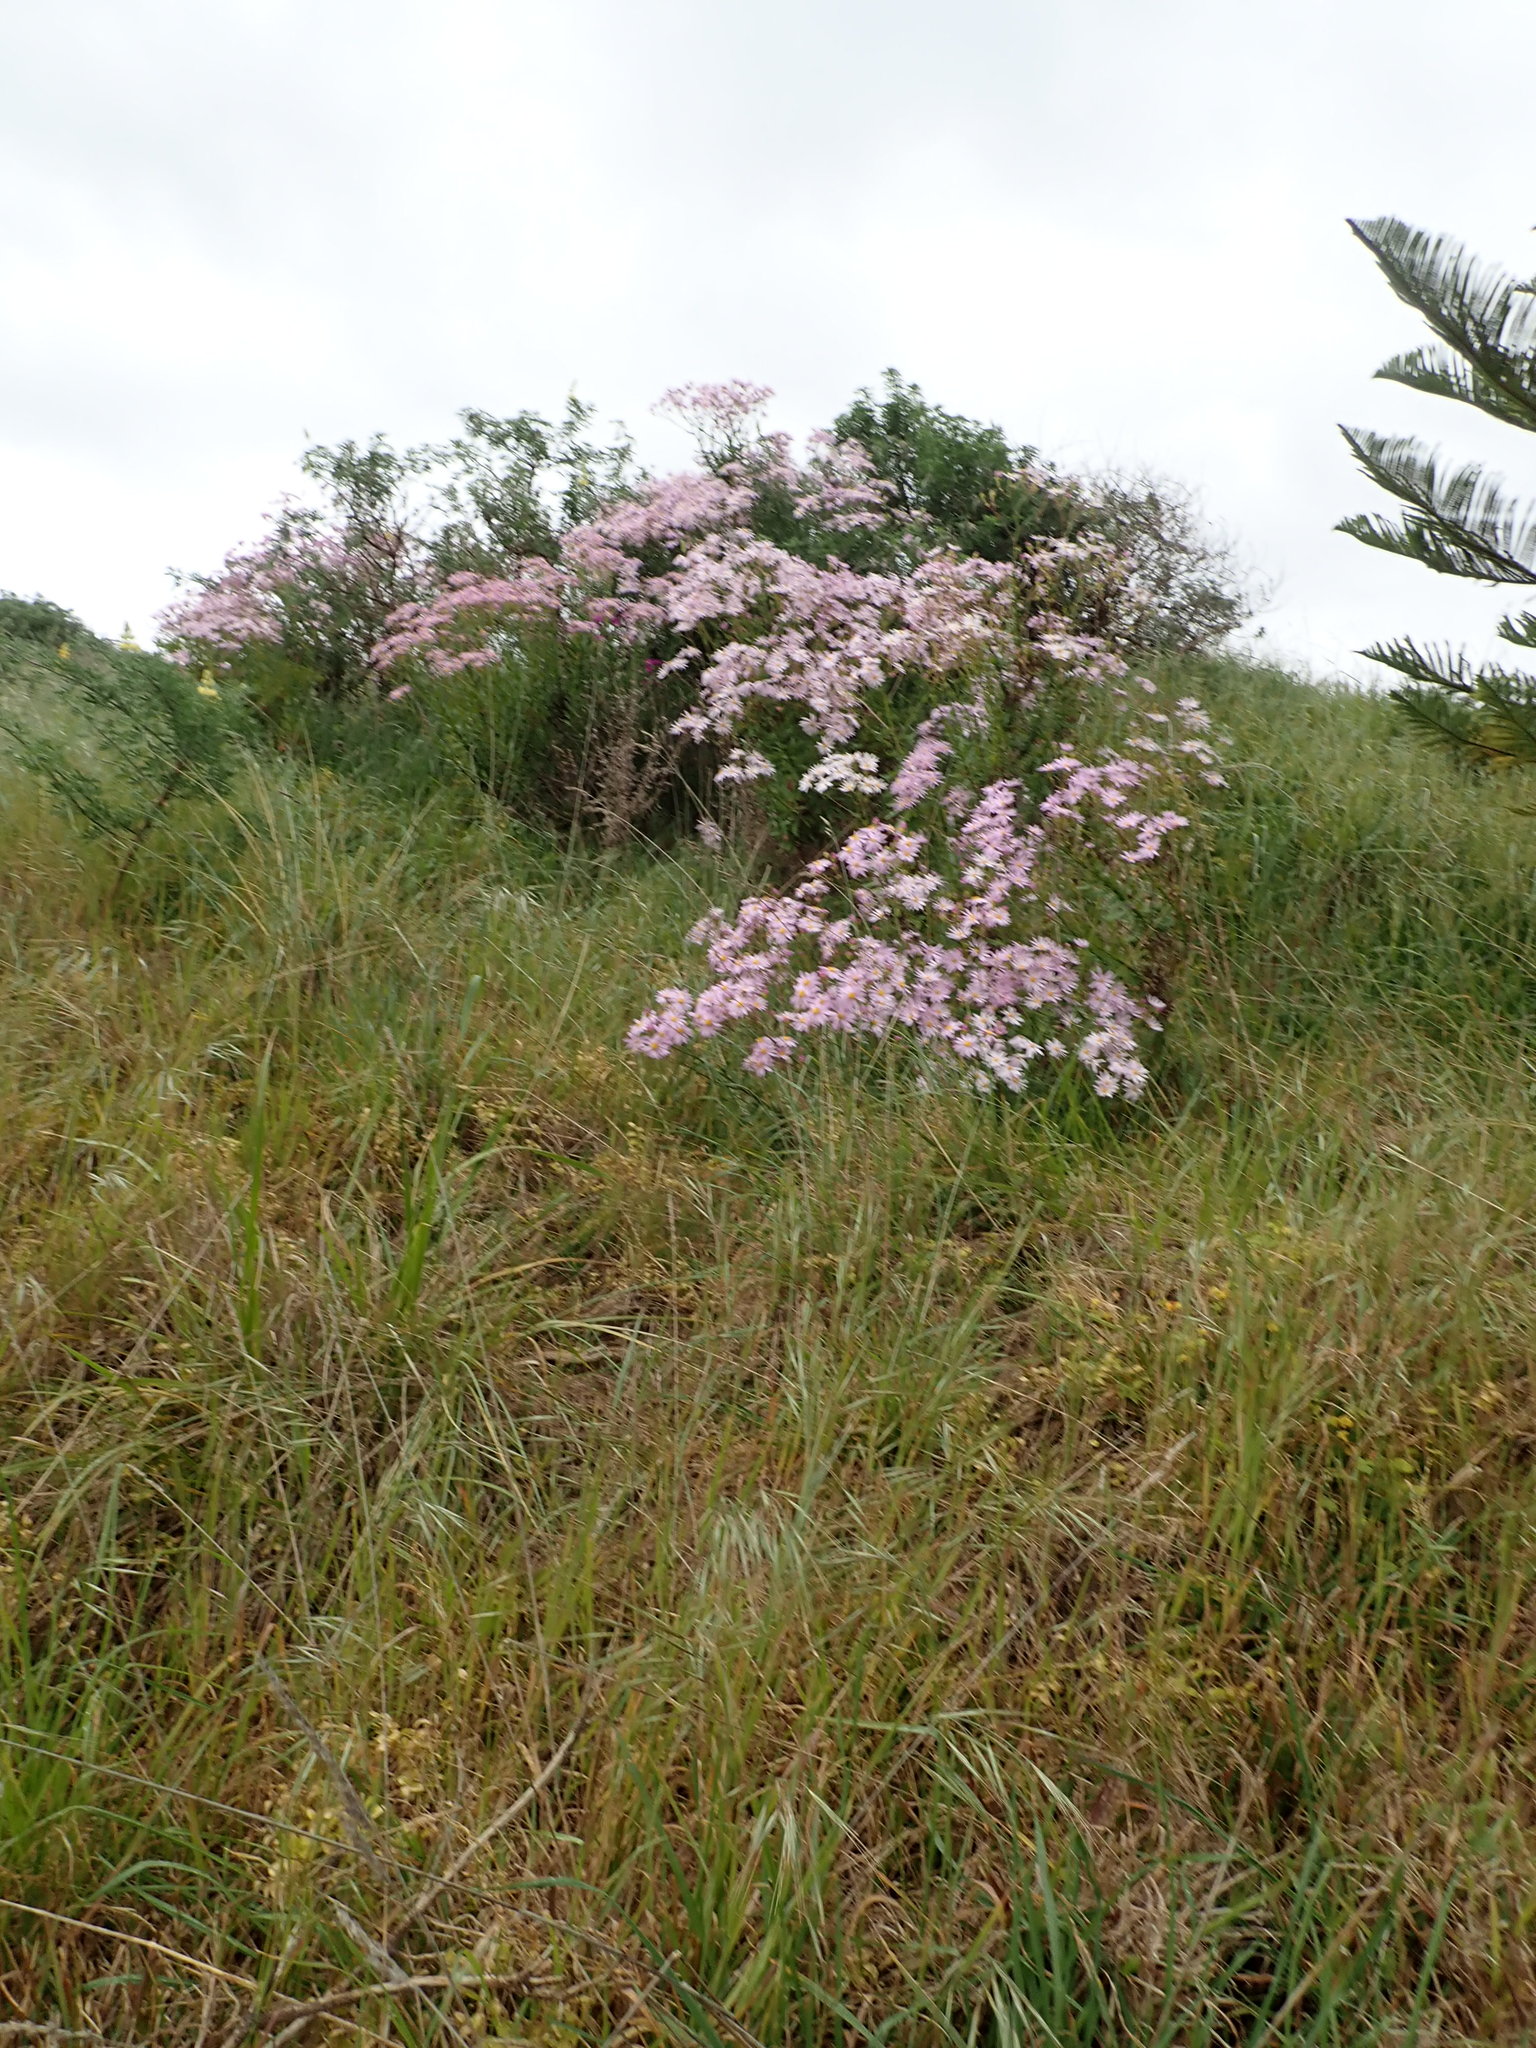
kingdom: Plantae
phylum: Tracheophyta
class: Magnoliopsida
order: Asterales
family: Asteraceae
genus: Senecio
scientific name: Senecio glastifolius
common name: Woad-leaved ragwort
